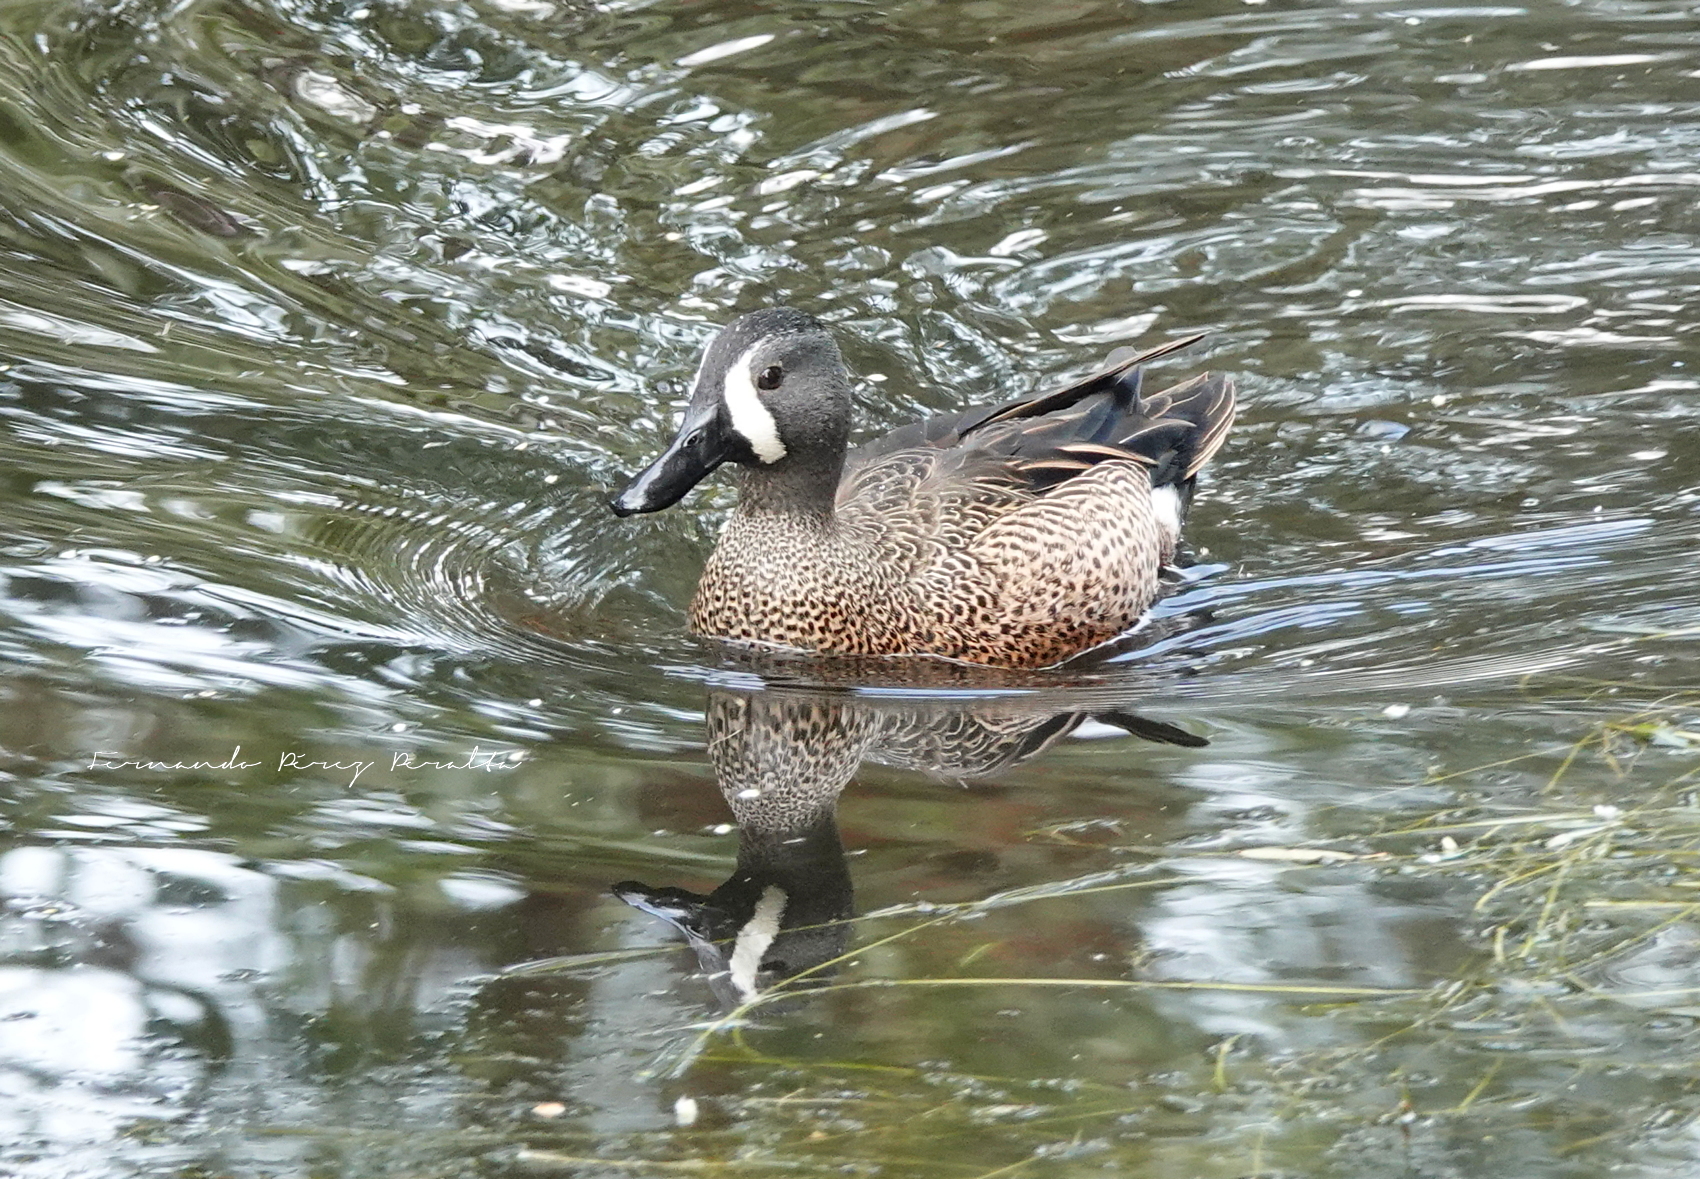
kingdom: Animalia
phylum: Chordata
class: Aves
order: Anseriformes
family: Anatidae
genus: Spatula
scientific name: Spatula discors
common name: Blue-winged teal
